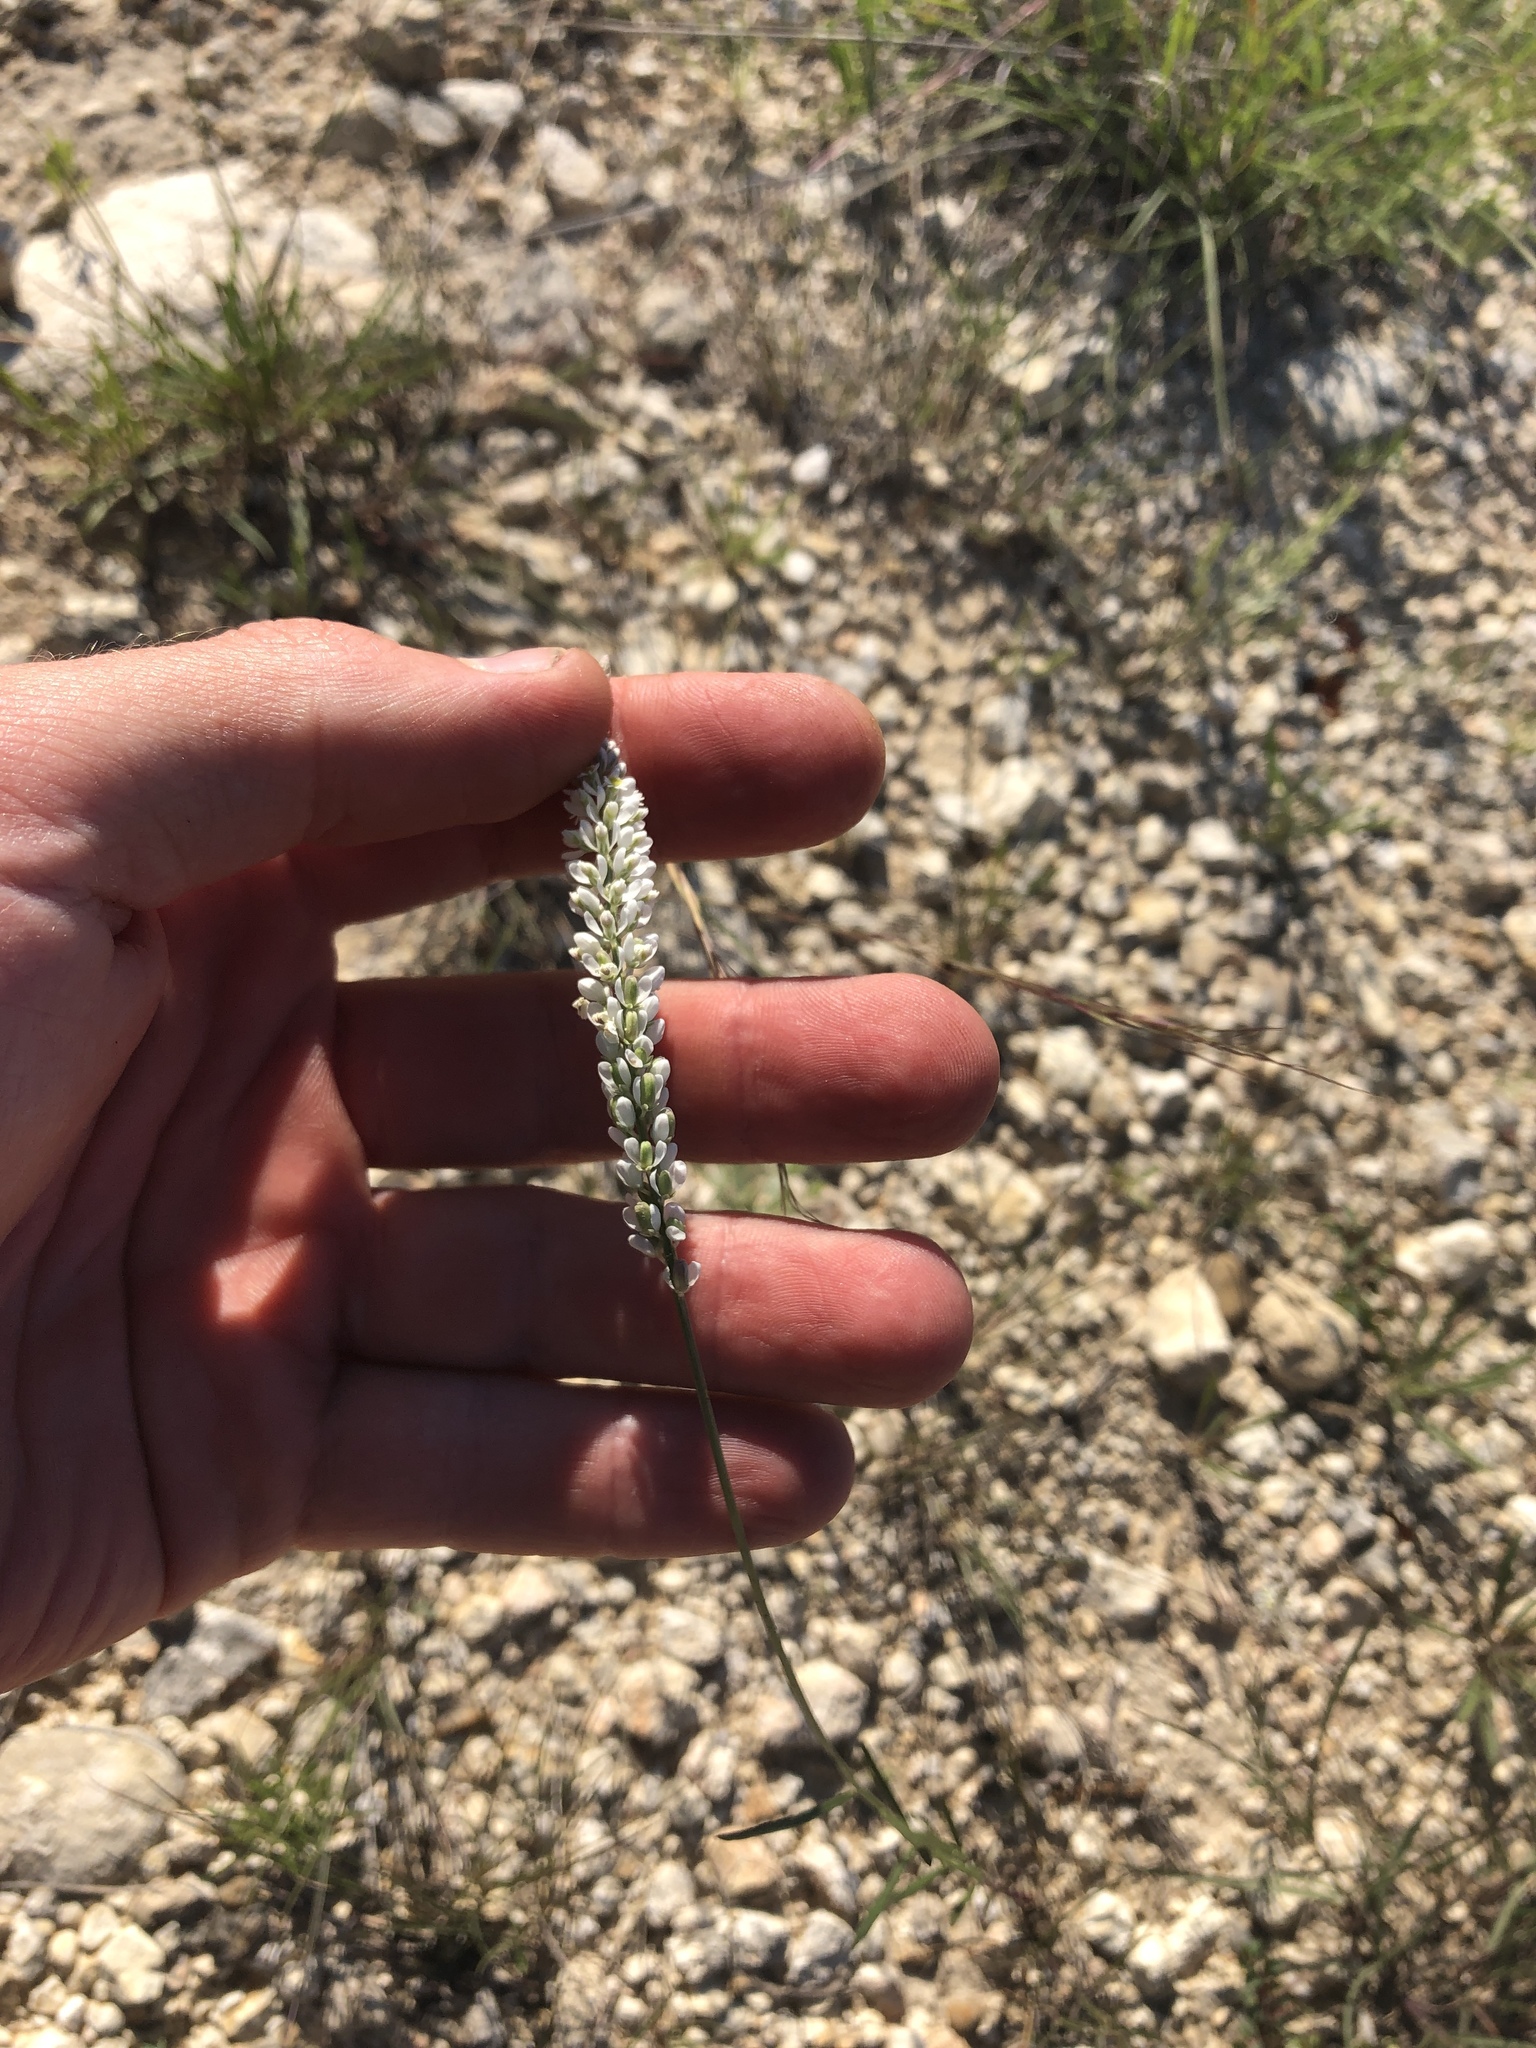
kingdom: Plantae
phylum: Tracheophyta
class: Magnoliopsida
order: Fabales
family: Polygalaceae
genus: Polygala
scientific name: Polygala alba
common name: White milkwort
